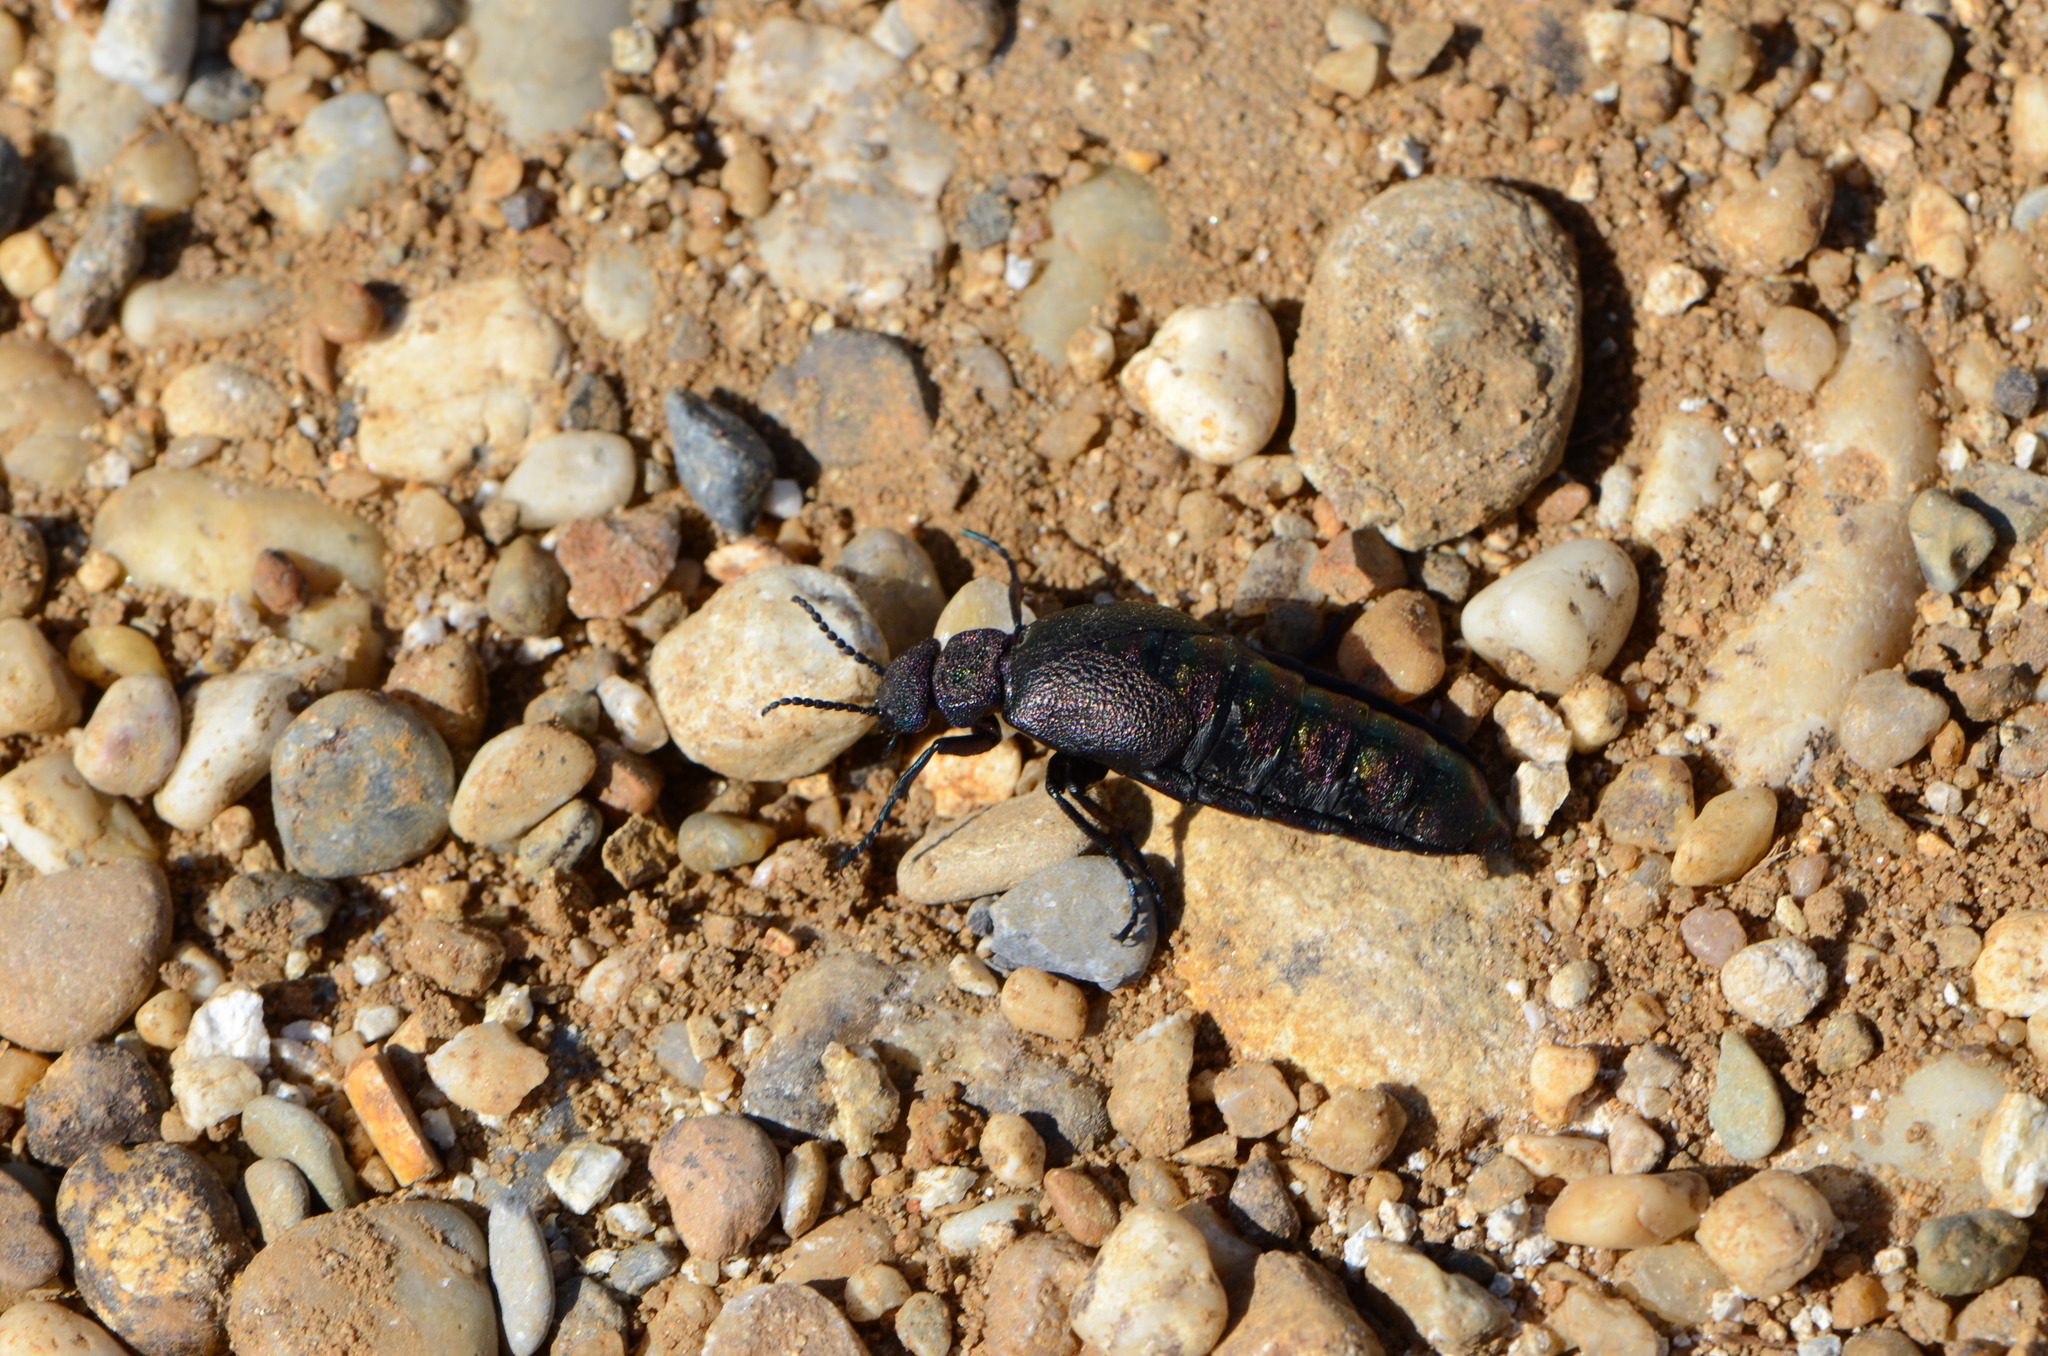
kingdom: Animalia
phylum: Arthropoda
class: Insecta
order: Coleoptera
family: Meloidae
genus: Meloe
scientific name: Meloe variegatus
